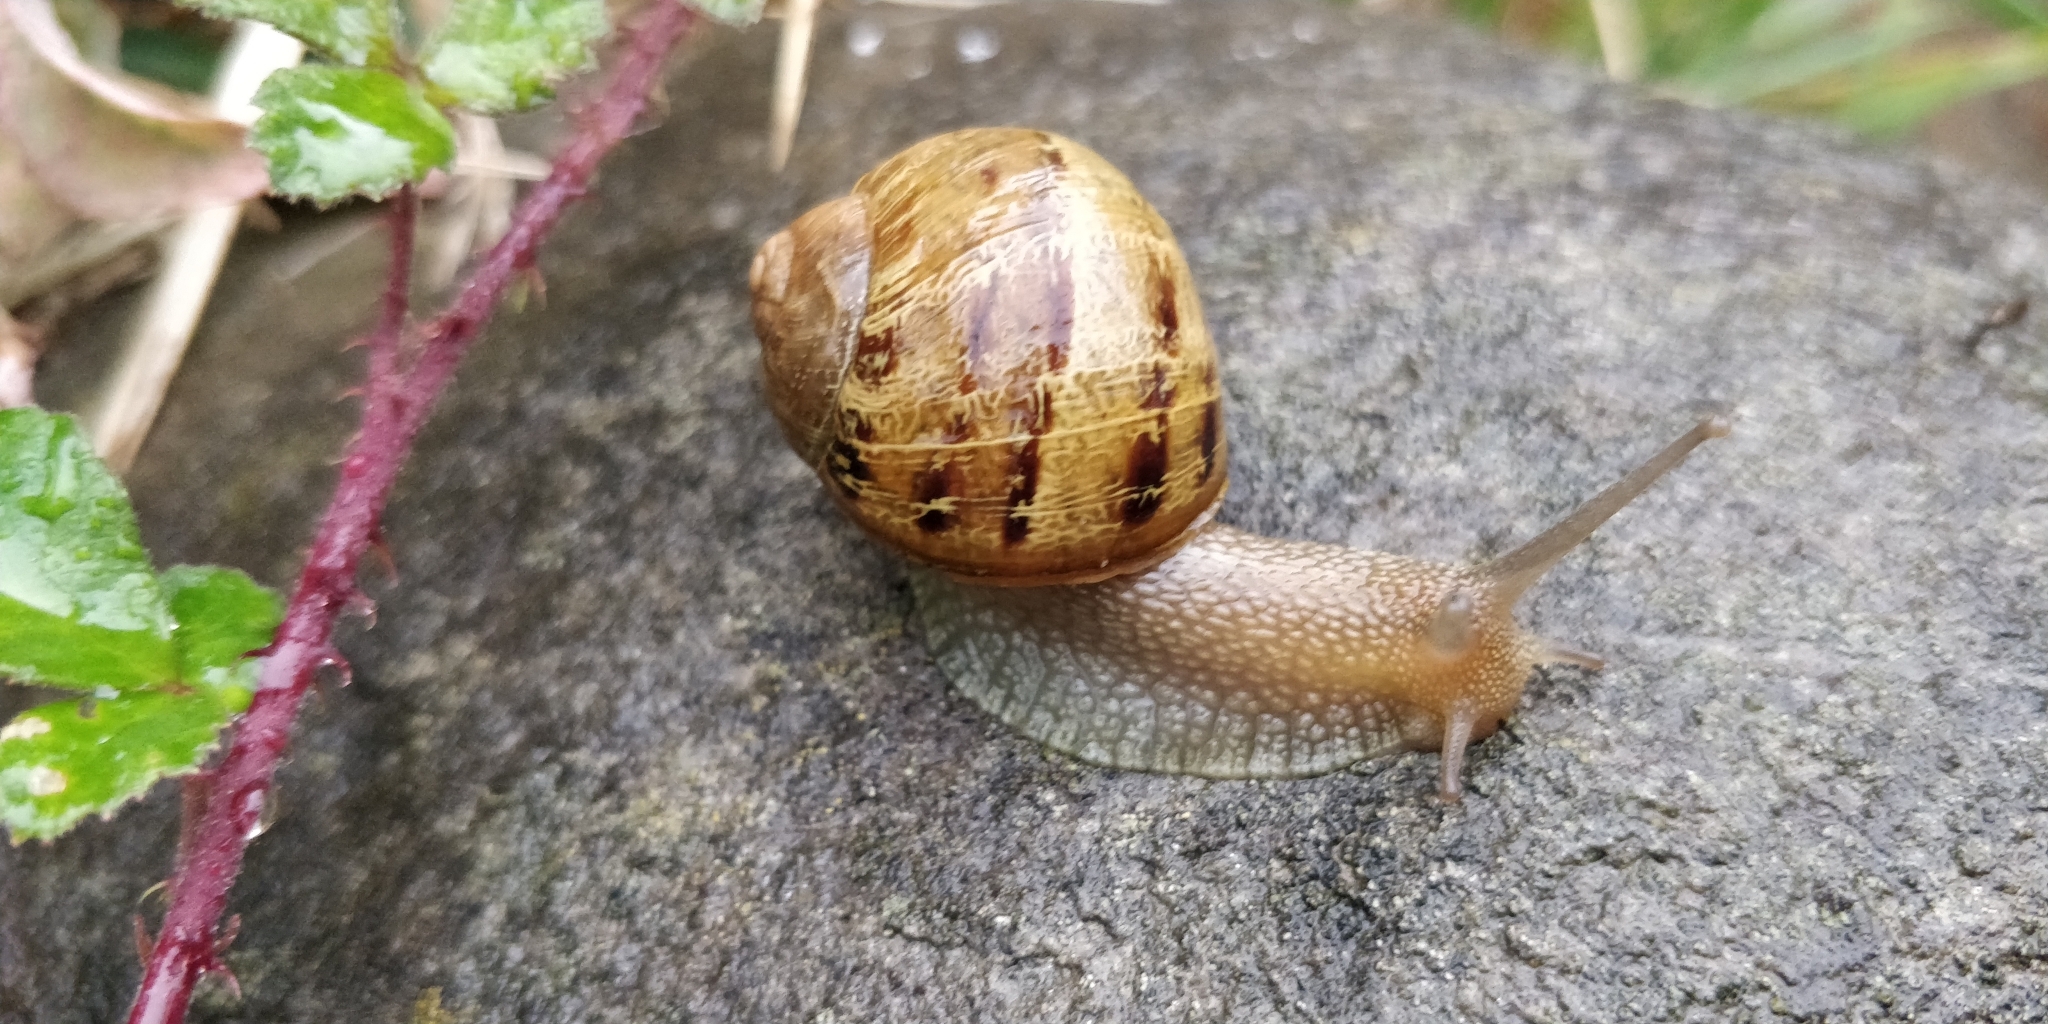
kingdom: Animalia
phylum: Mollusca
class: Gastropoda
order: Stylommatophora
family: Helicidae
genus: Cornu
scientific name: Cornu aspersum
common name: Brown garden snail
